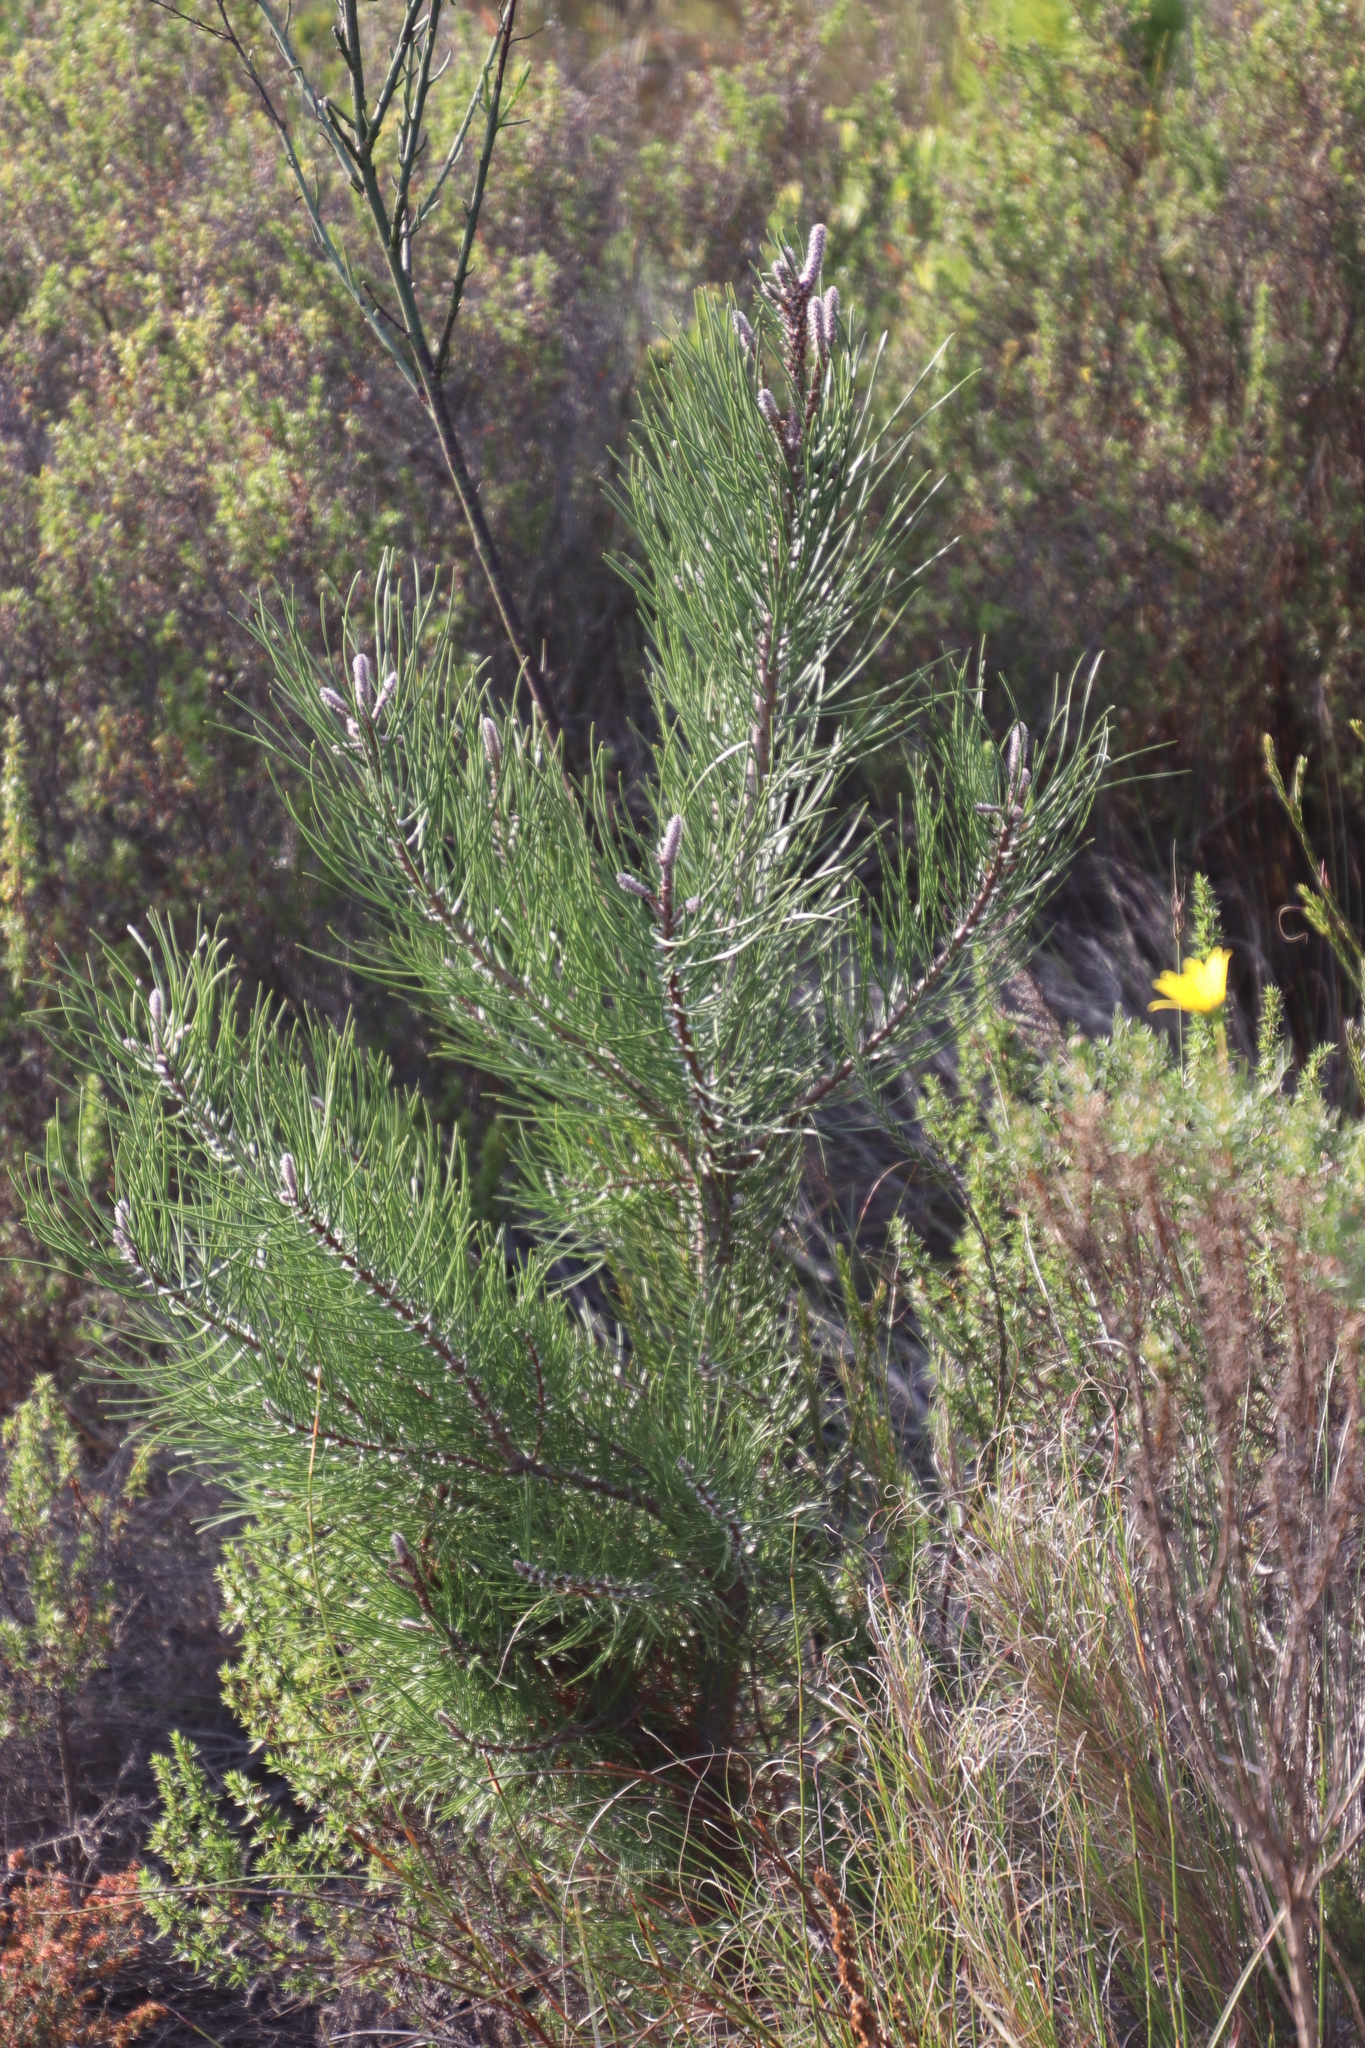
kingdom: Plantae
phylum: Tracheophyta
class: Pinopsida
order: Pinales
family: Pinaceae
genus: Pinus
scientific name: Pinus pinaster
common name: Maritime pine
